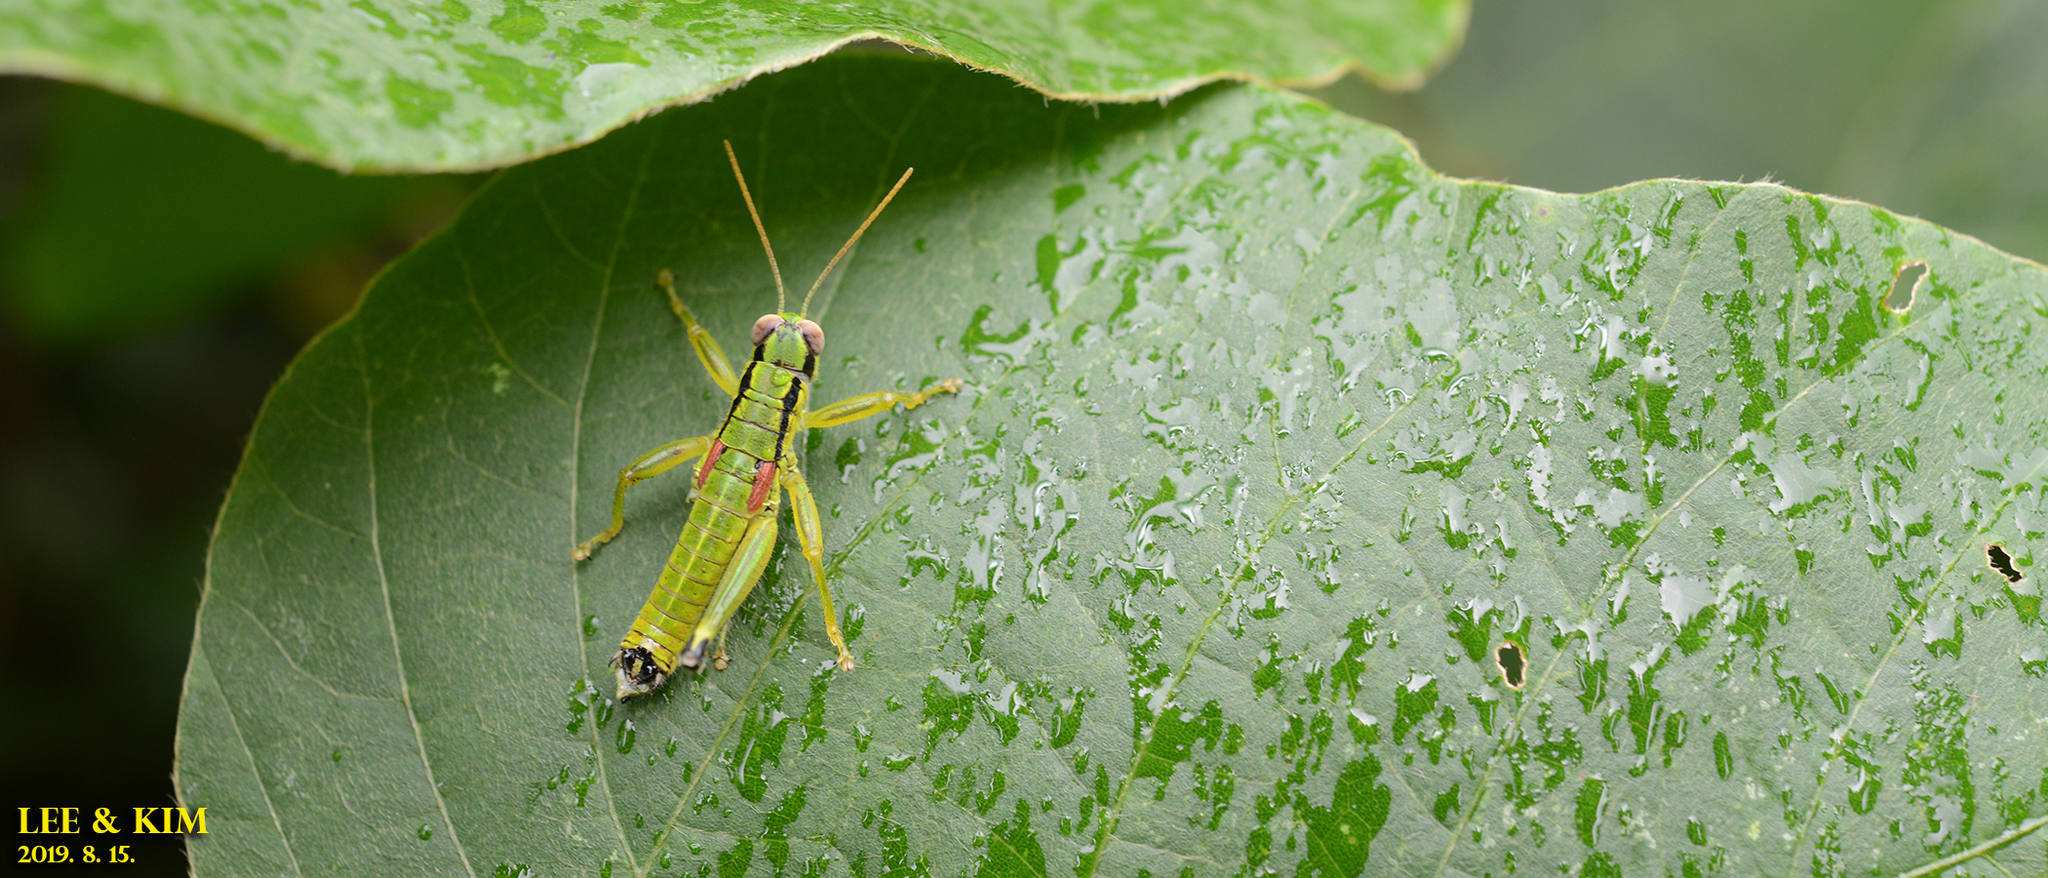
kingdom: Animalia
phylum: Arthropoda
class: Insecta
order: Orthoptera
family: Acrididae
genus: Anapodisma
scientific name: Anapodisma miramae
